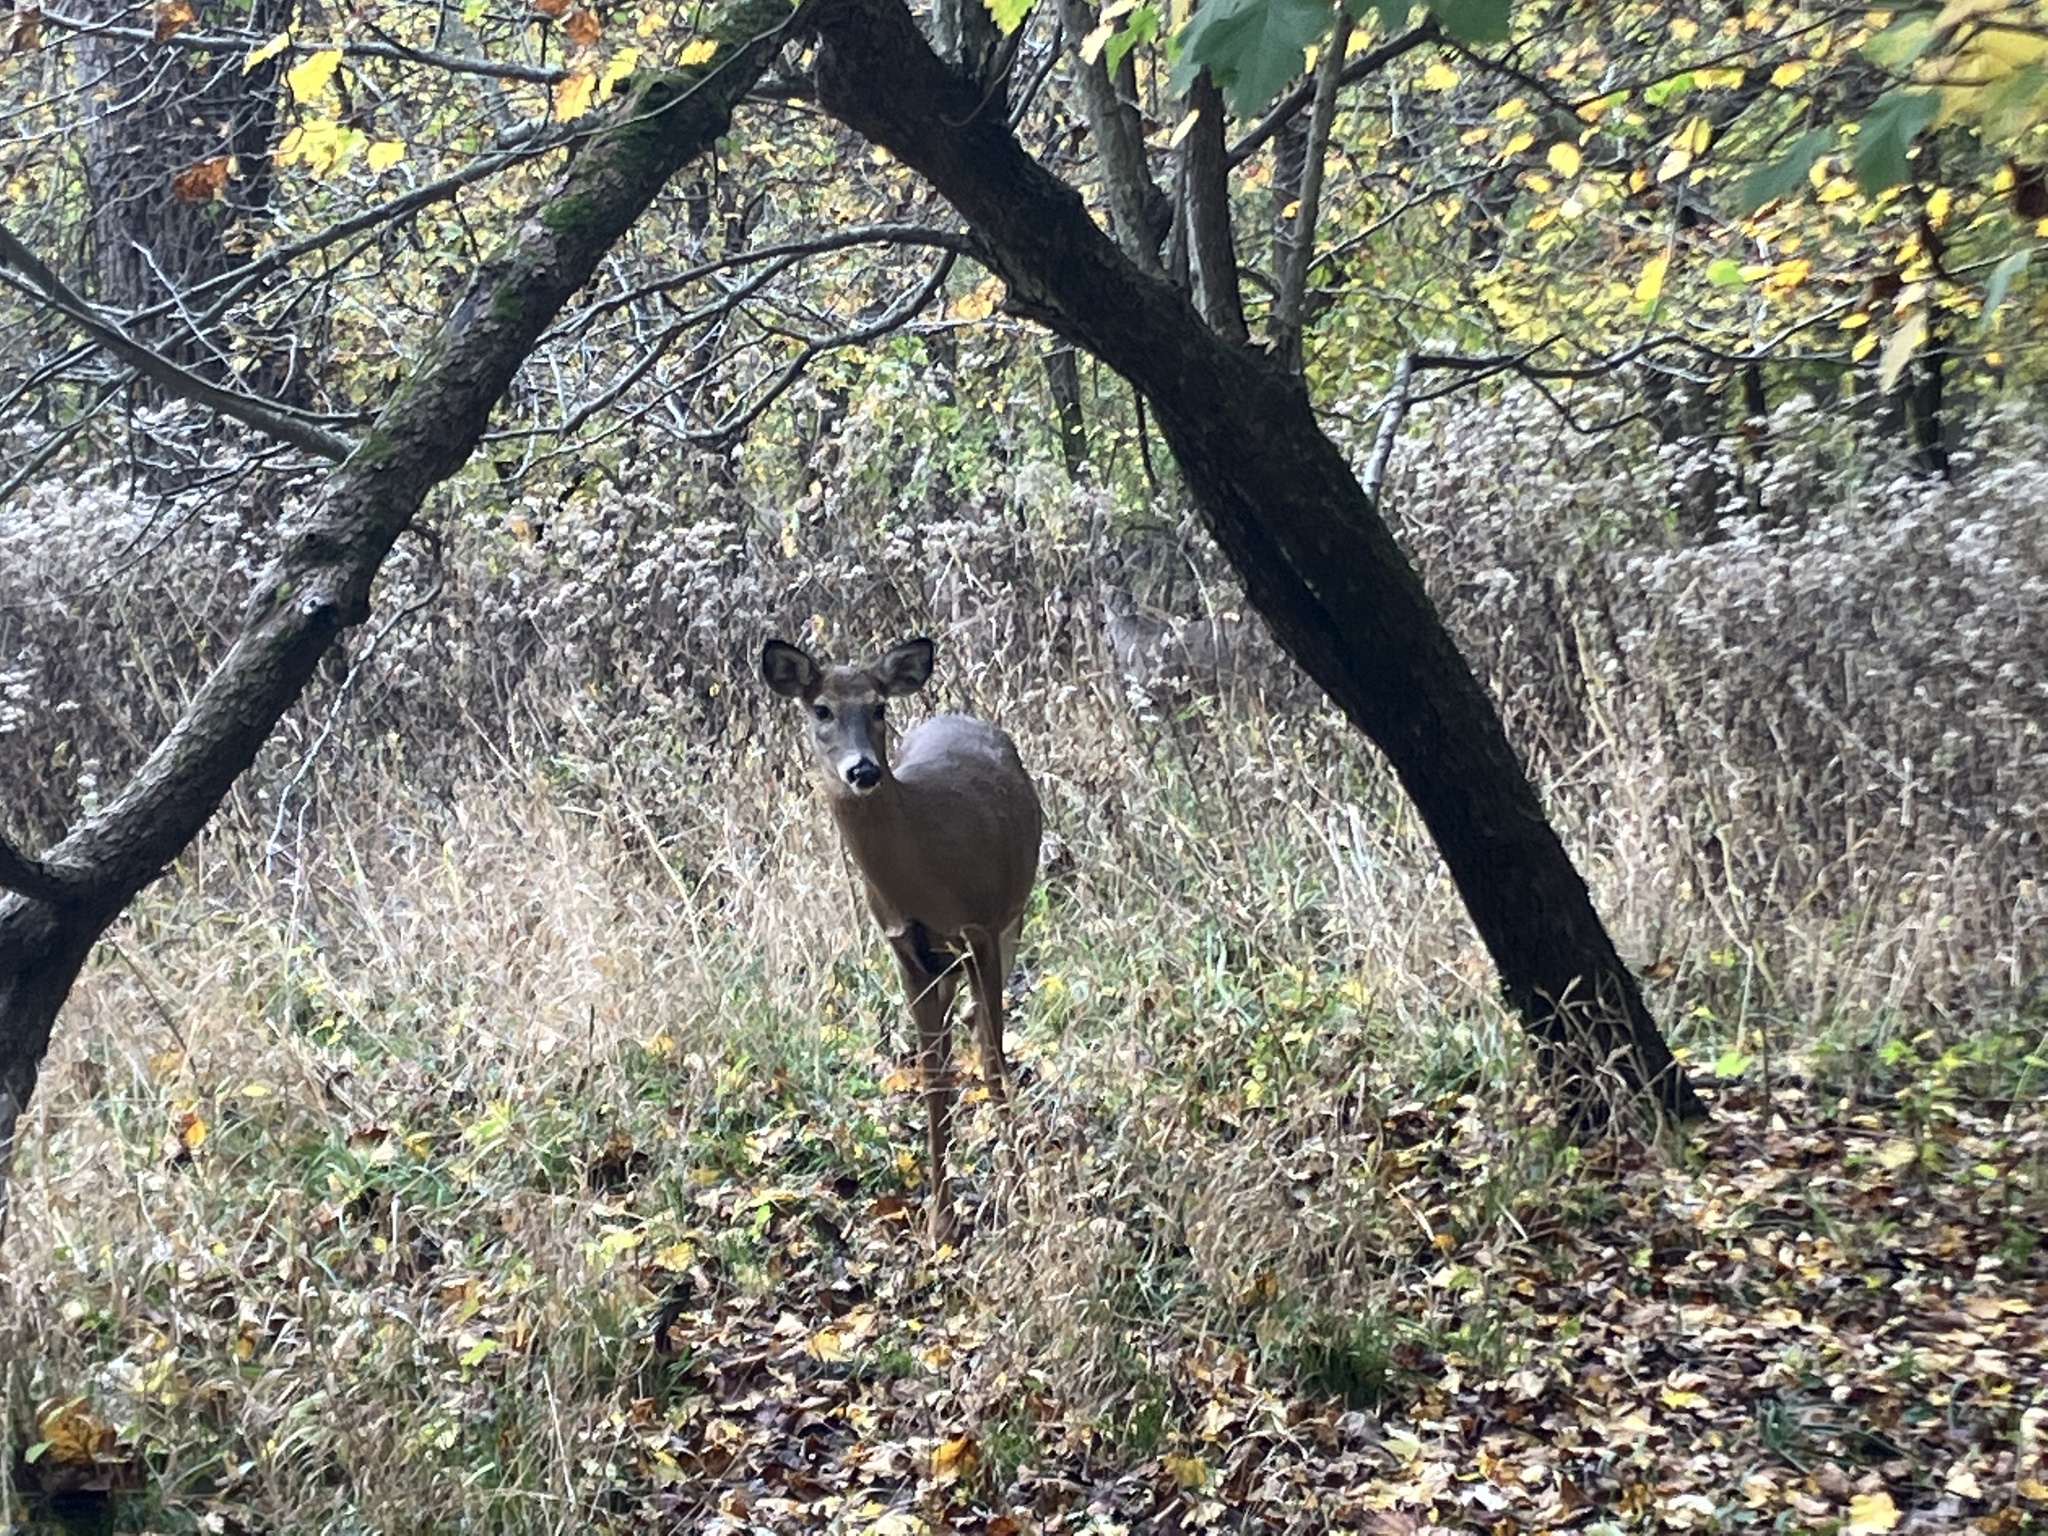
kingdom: Animalia
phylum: Chordata
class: Mammalia
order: Artiodactyla
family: Cervidae
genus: Odocoileus
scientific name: Odocoileus virginianus
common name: White-tailed deer
